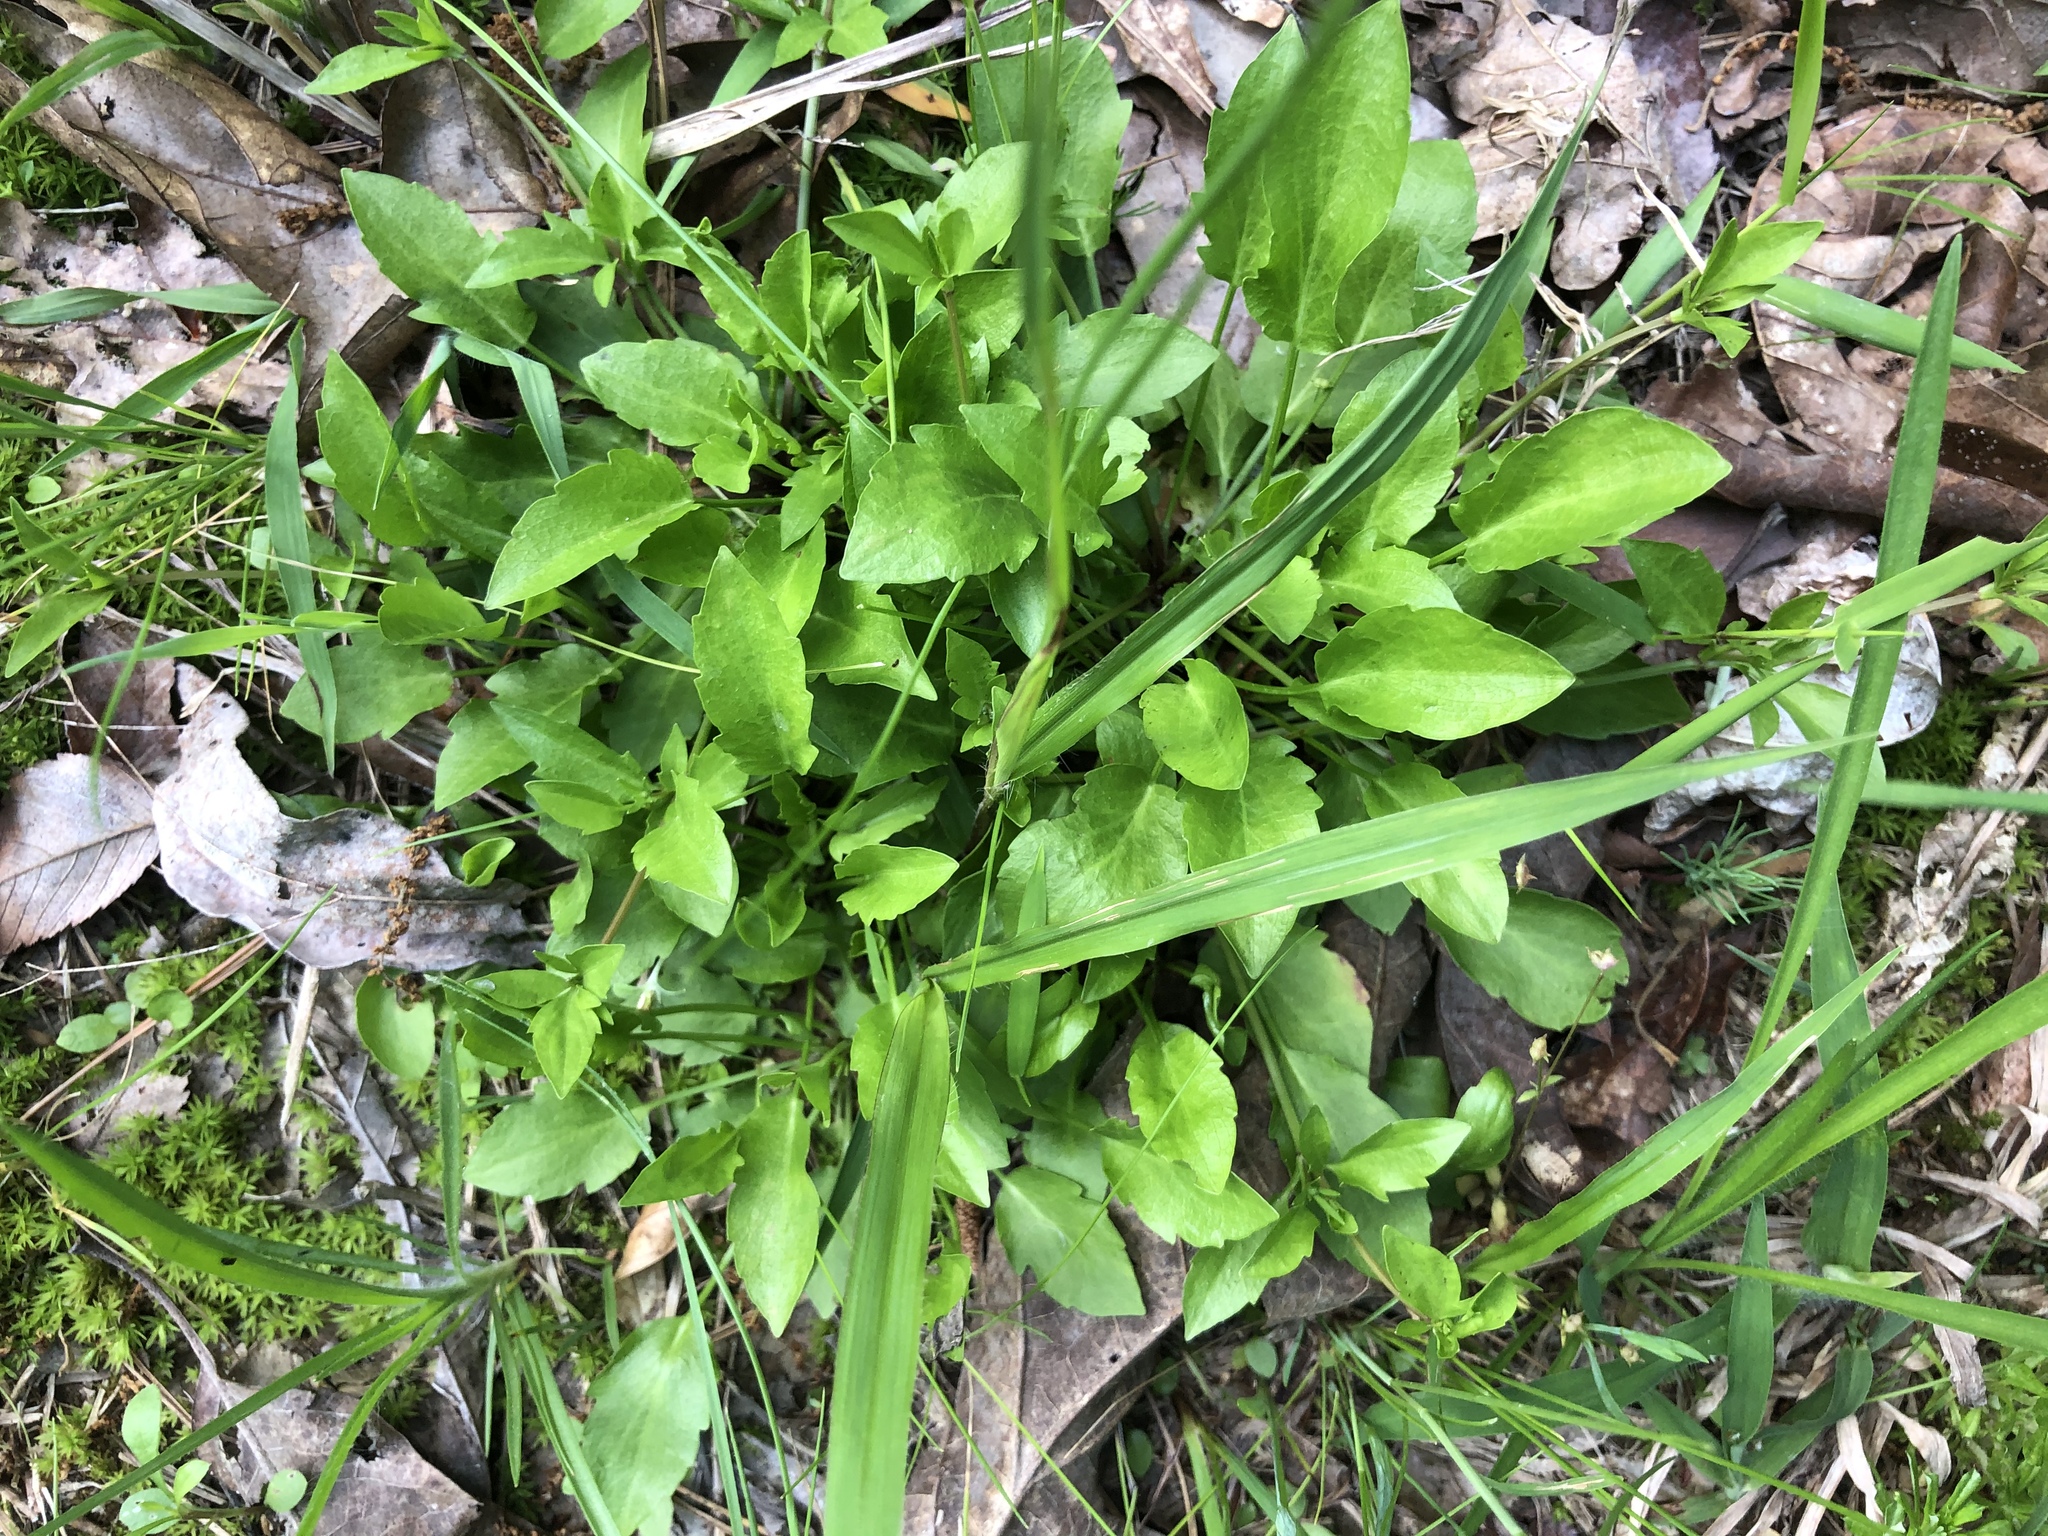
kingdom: Plantae
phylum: Tracheophyta
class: Magnoliopsida
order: Apiales
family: Apiaceae
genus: Eryngium
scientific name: Eryngium prostratum
